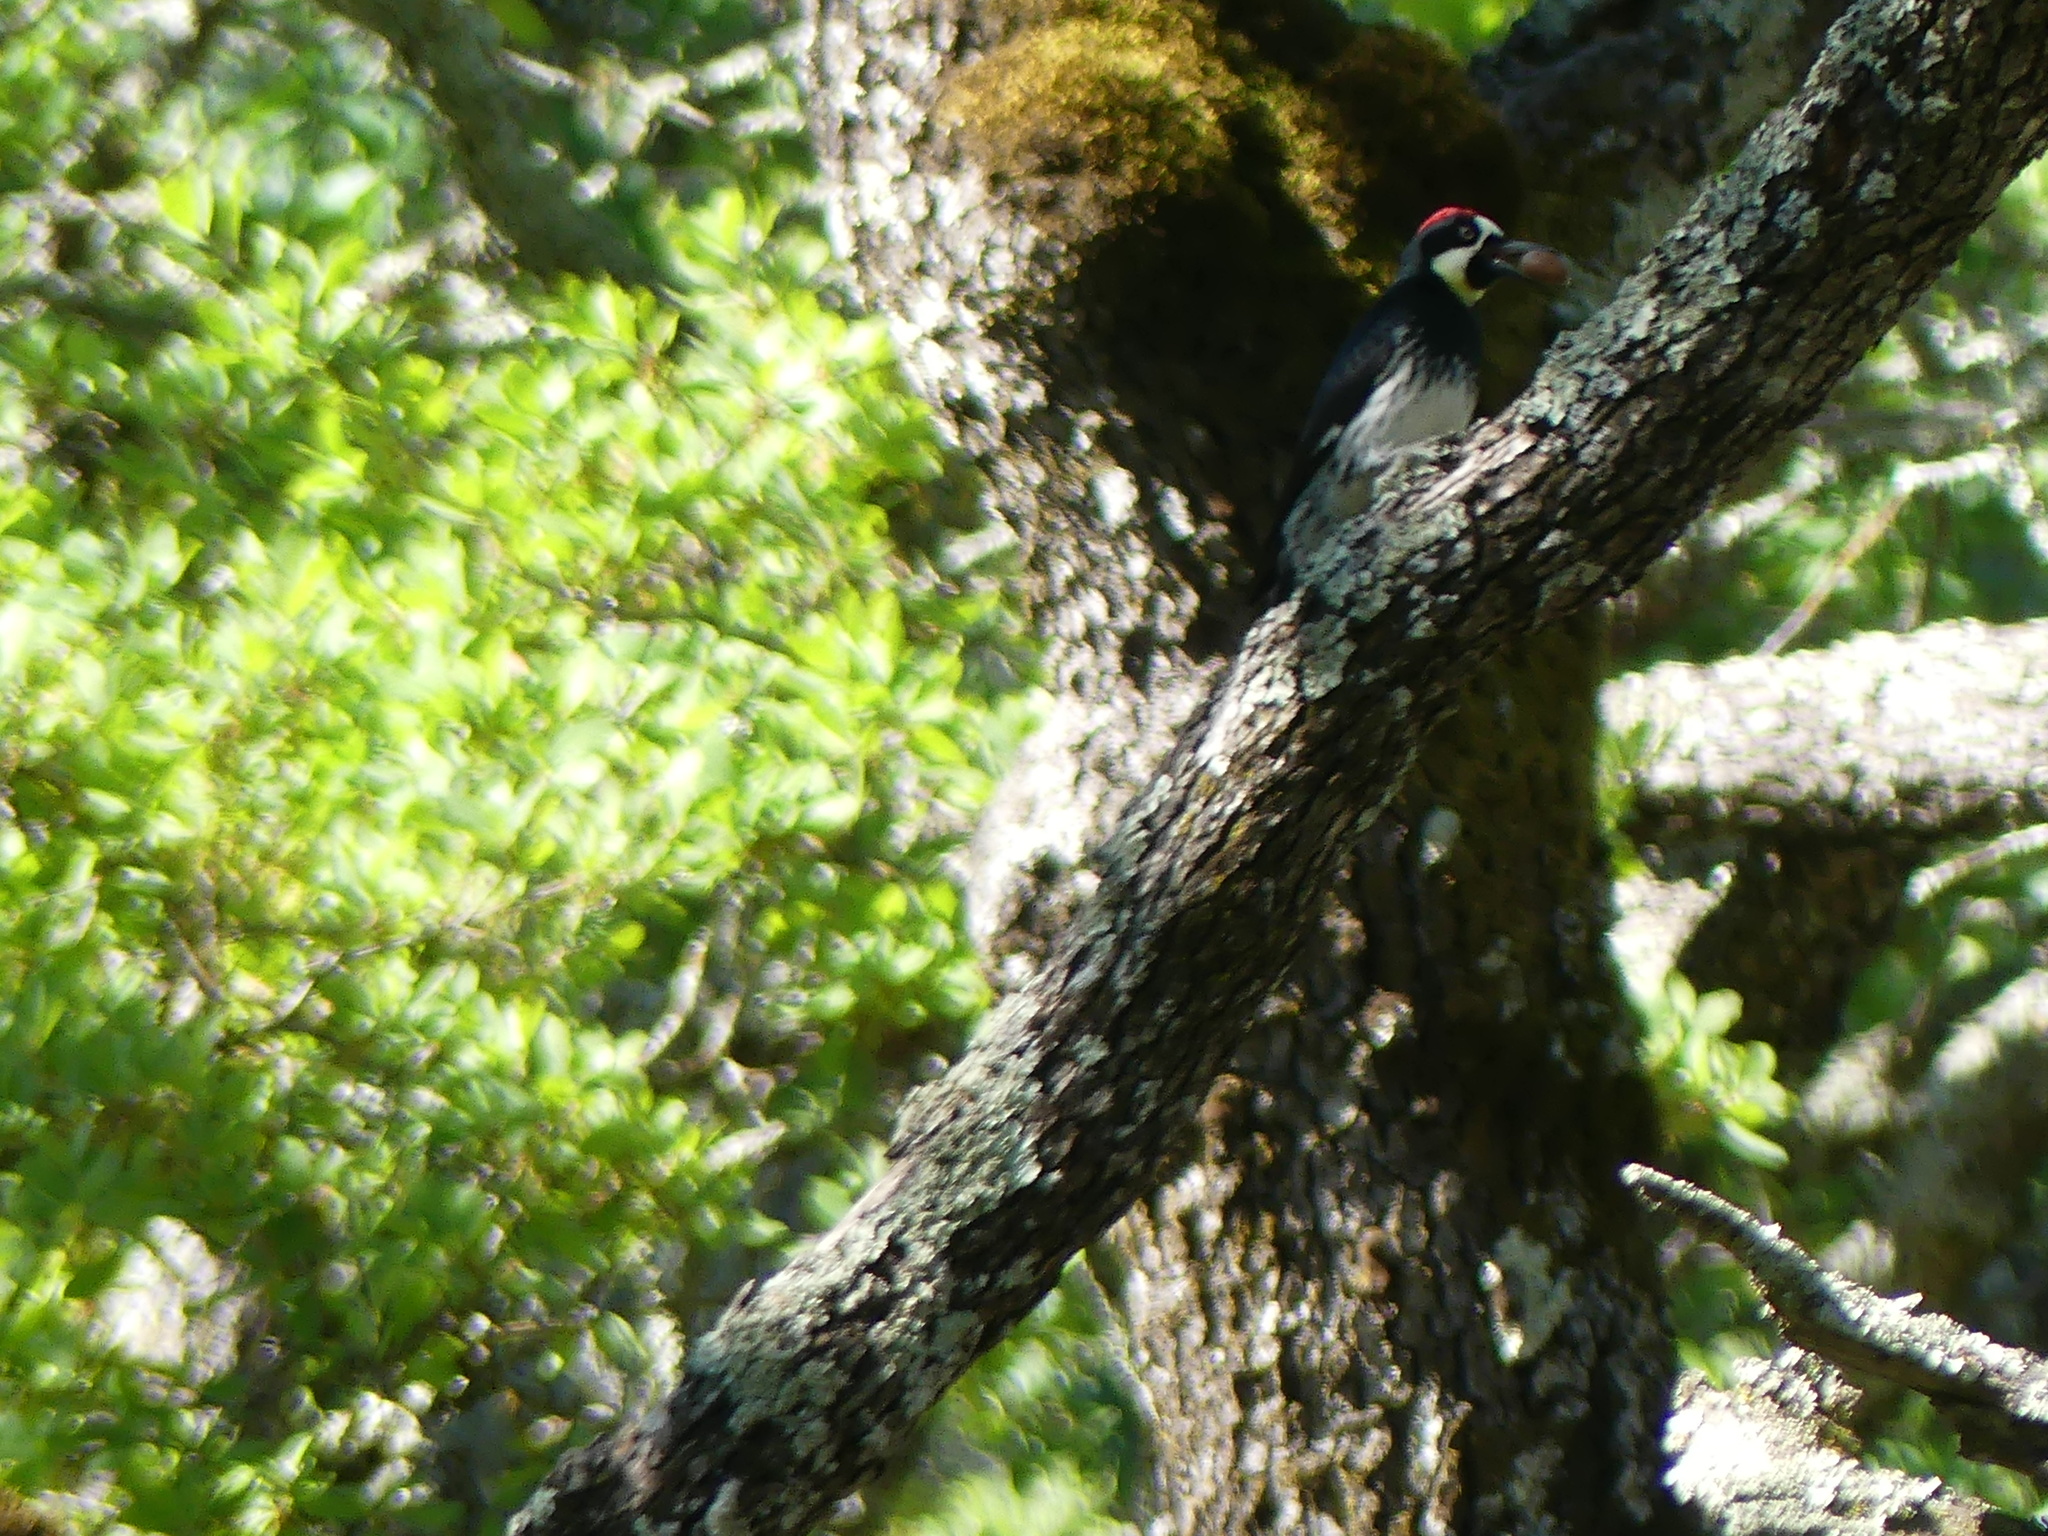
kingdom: Animalia
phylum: Chordata
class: Aves
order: Piciformes
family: Picidae
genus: Melanerpes
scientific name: Melanerpes formicivorus
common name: Acorn woodpecker
